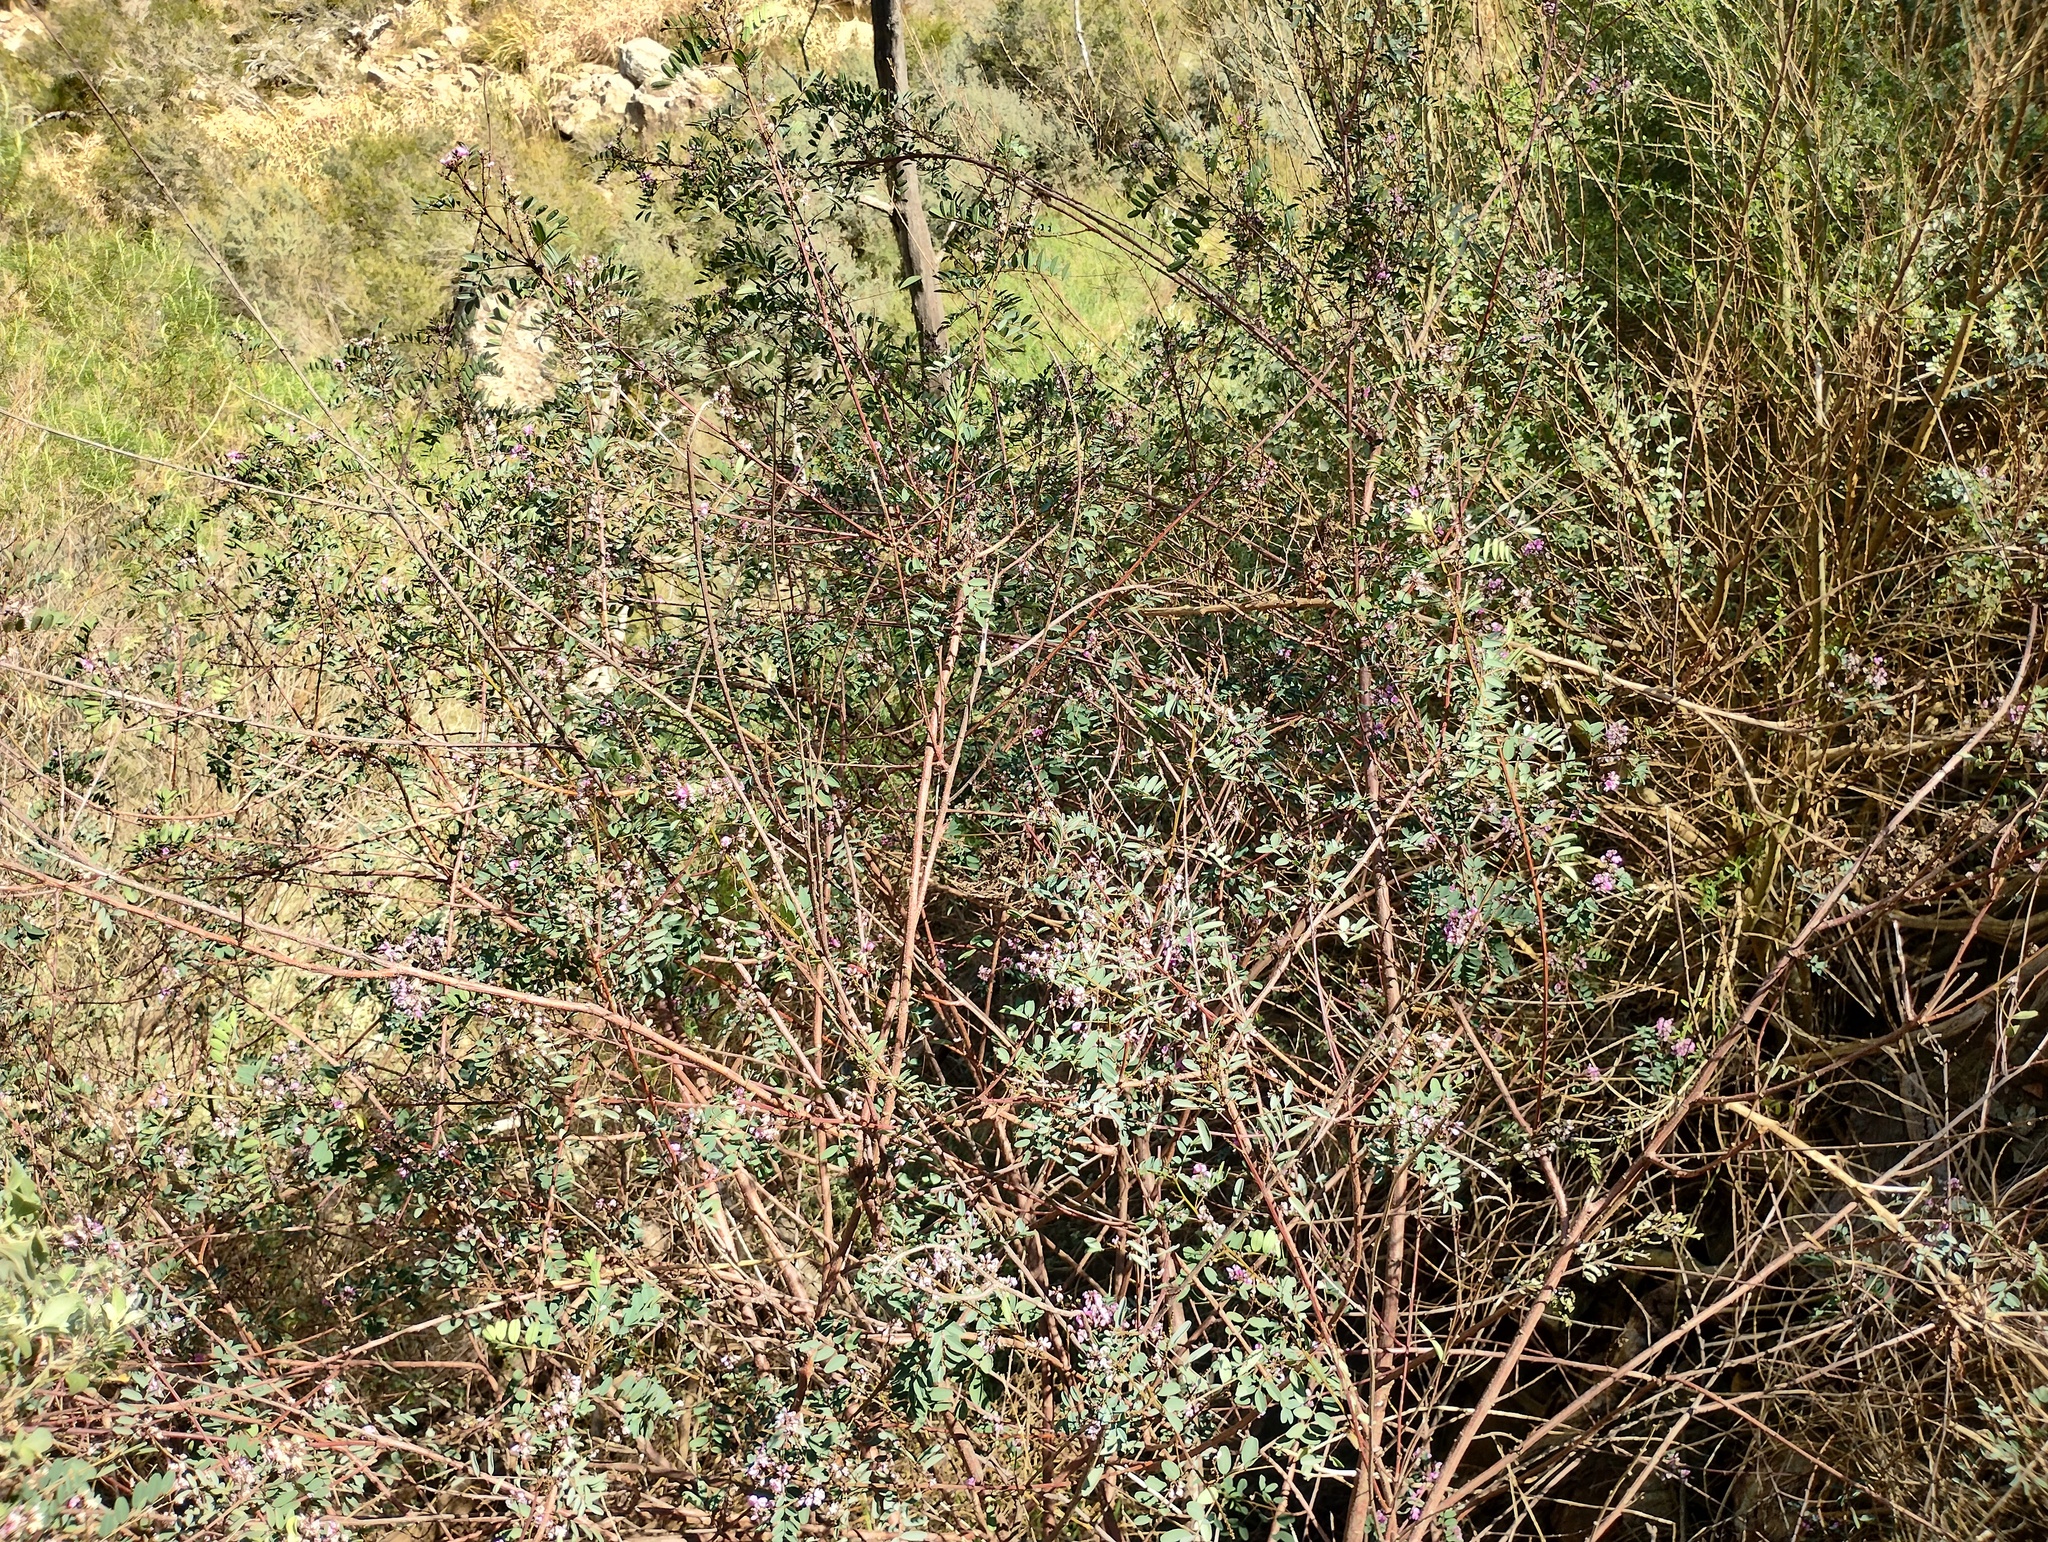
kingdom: Plantae
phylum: Tracheophyta
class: Magnoliopsida
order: Fabales
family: Fabaceae
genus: Indigofera
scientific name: Indigofera australis
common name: Australian indigo
